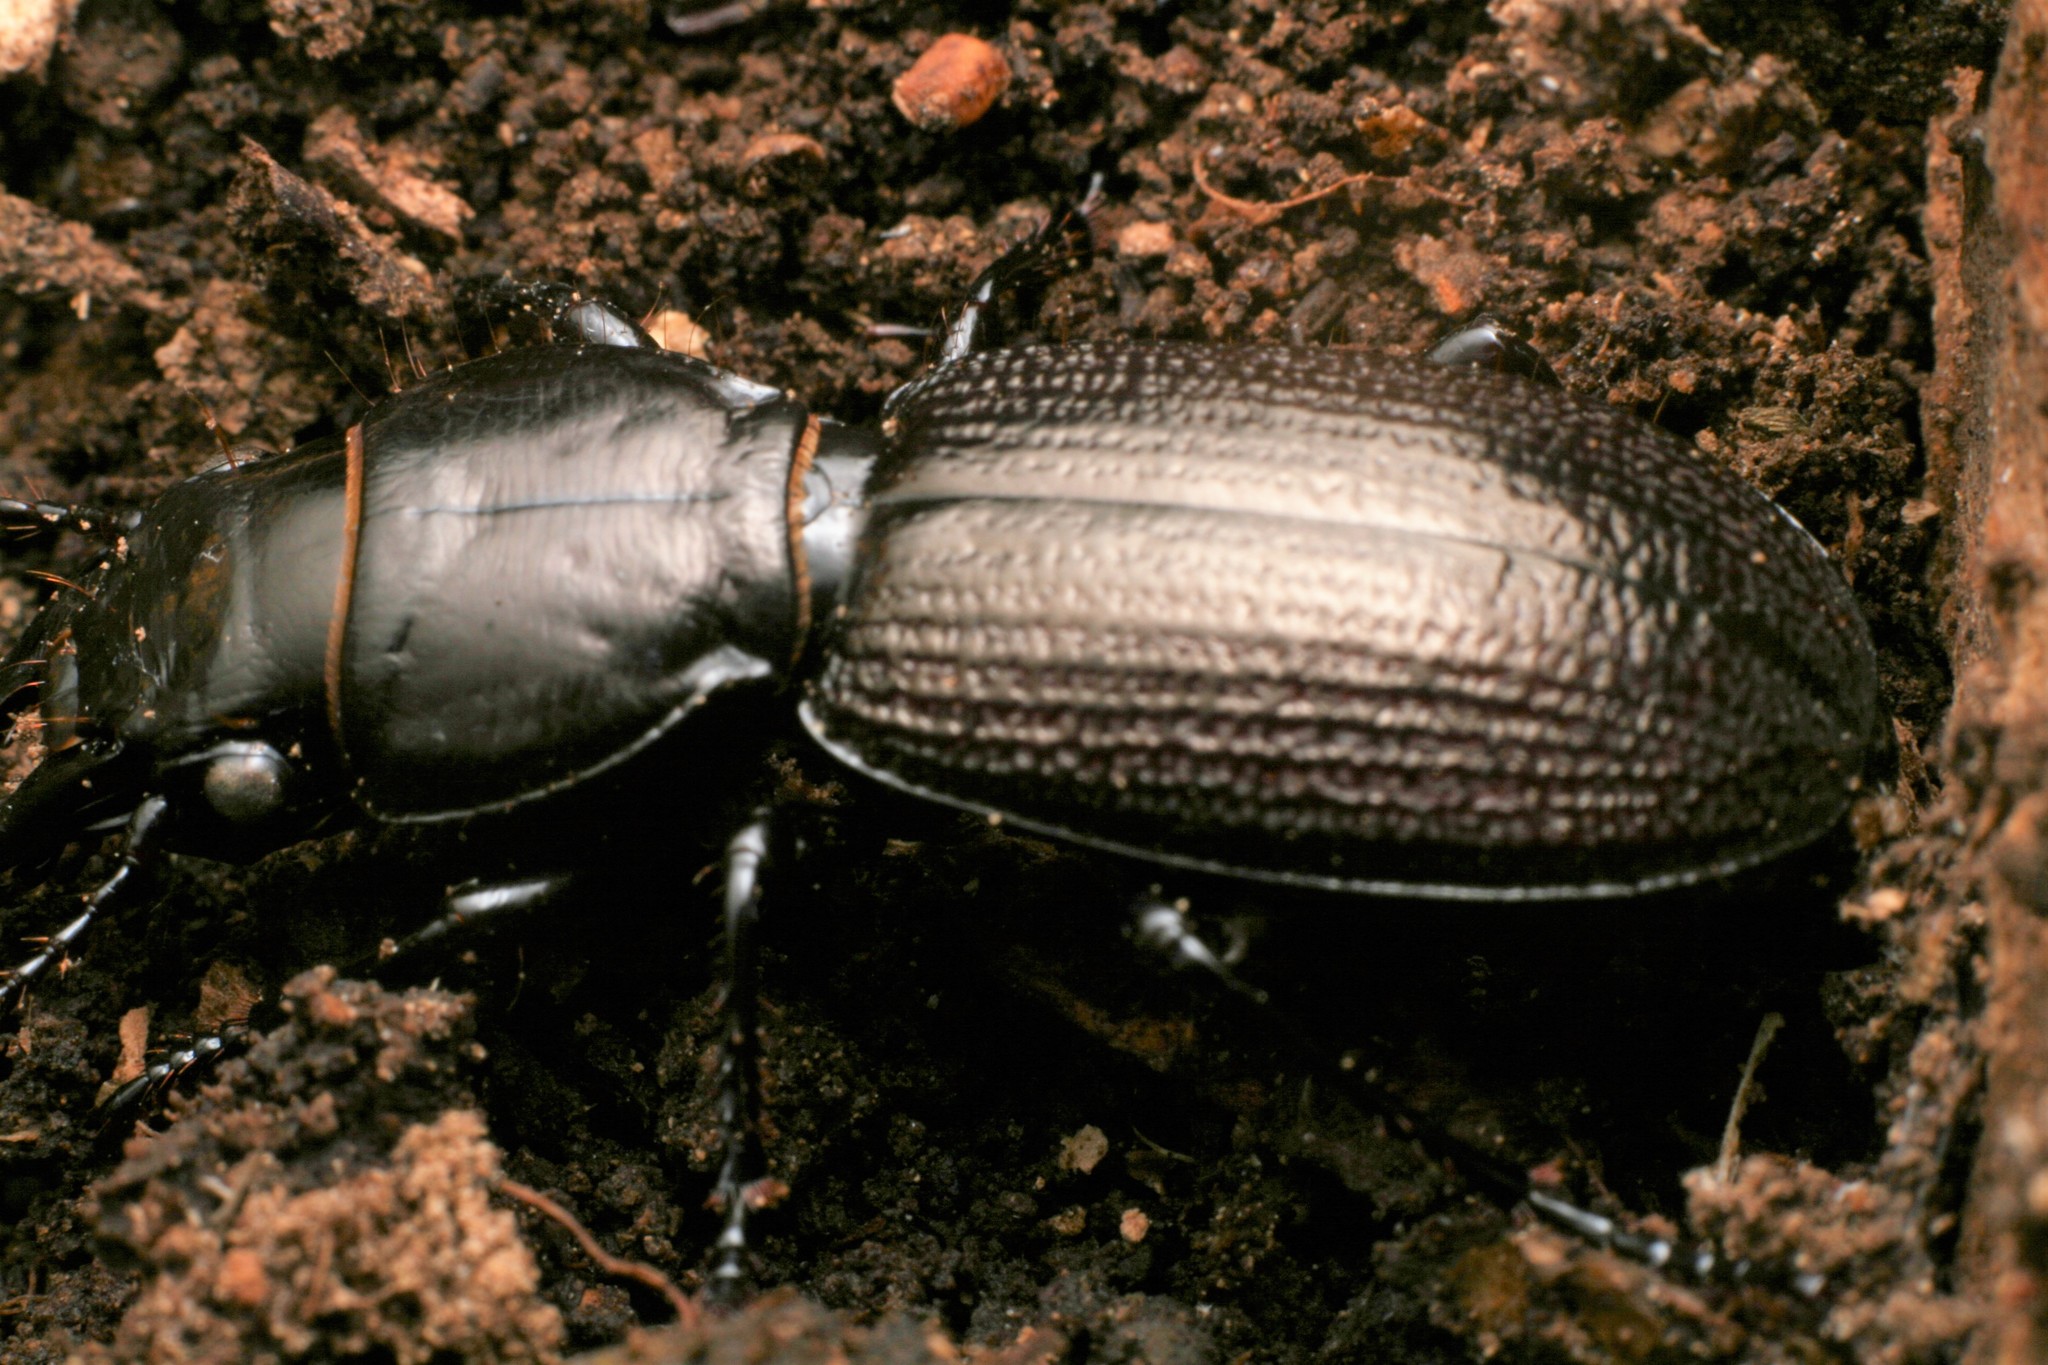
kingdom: Animalia
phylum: Arthropoda
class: Insecta
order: Coleoptera
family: Carabidae
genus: Mecodema
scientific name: Mecodema howittii
